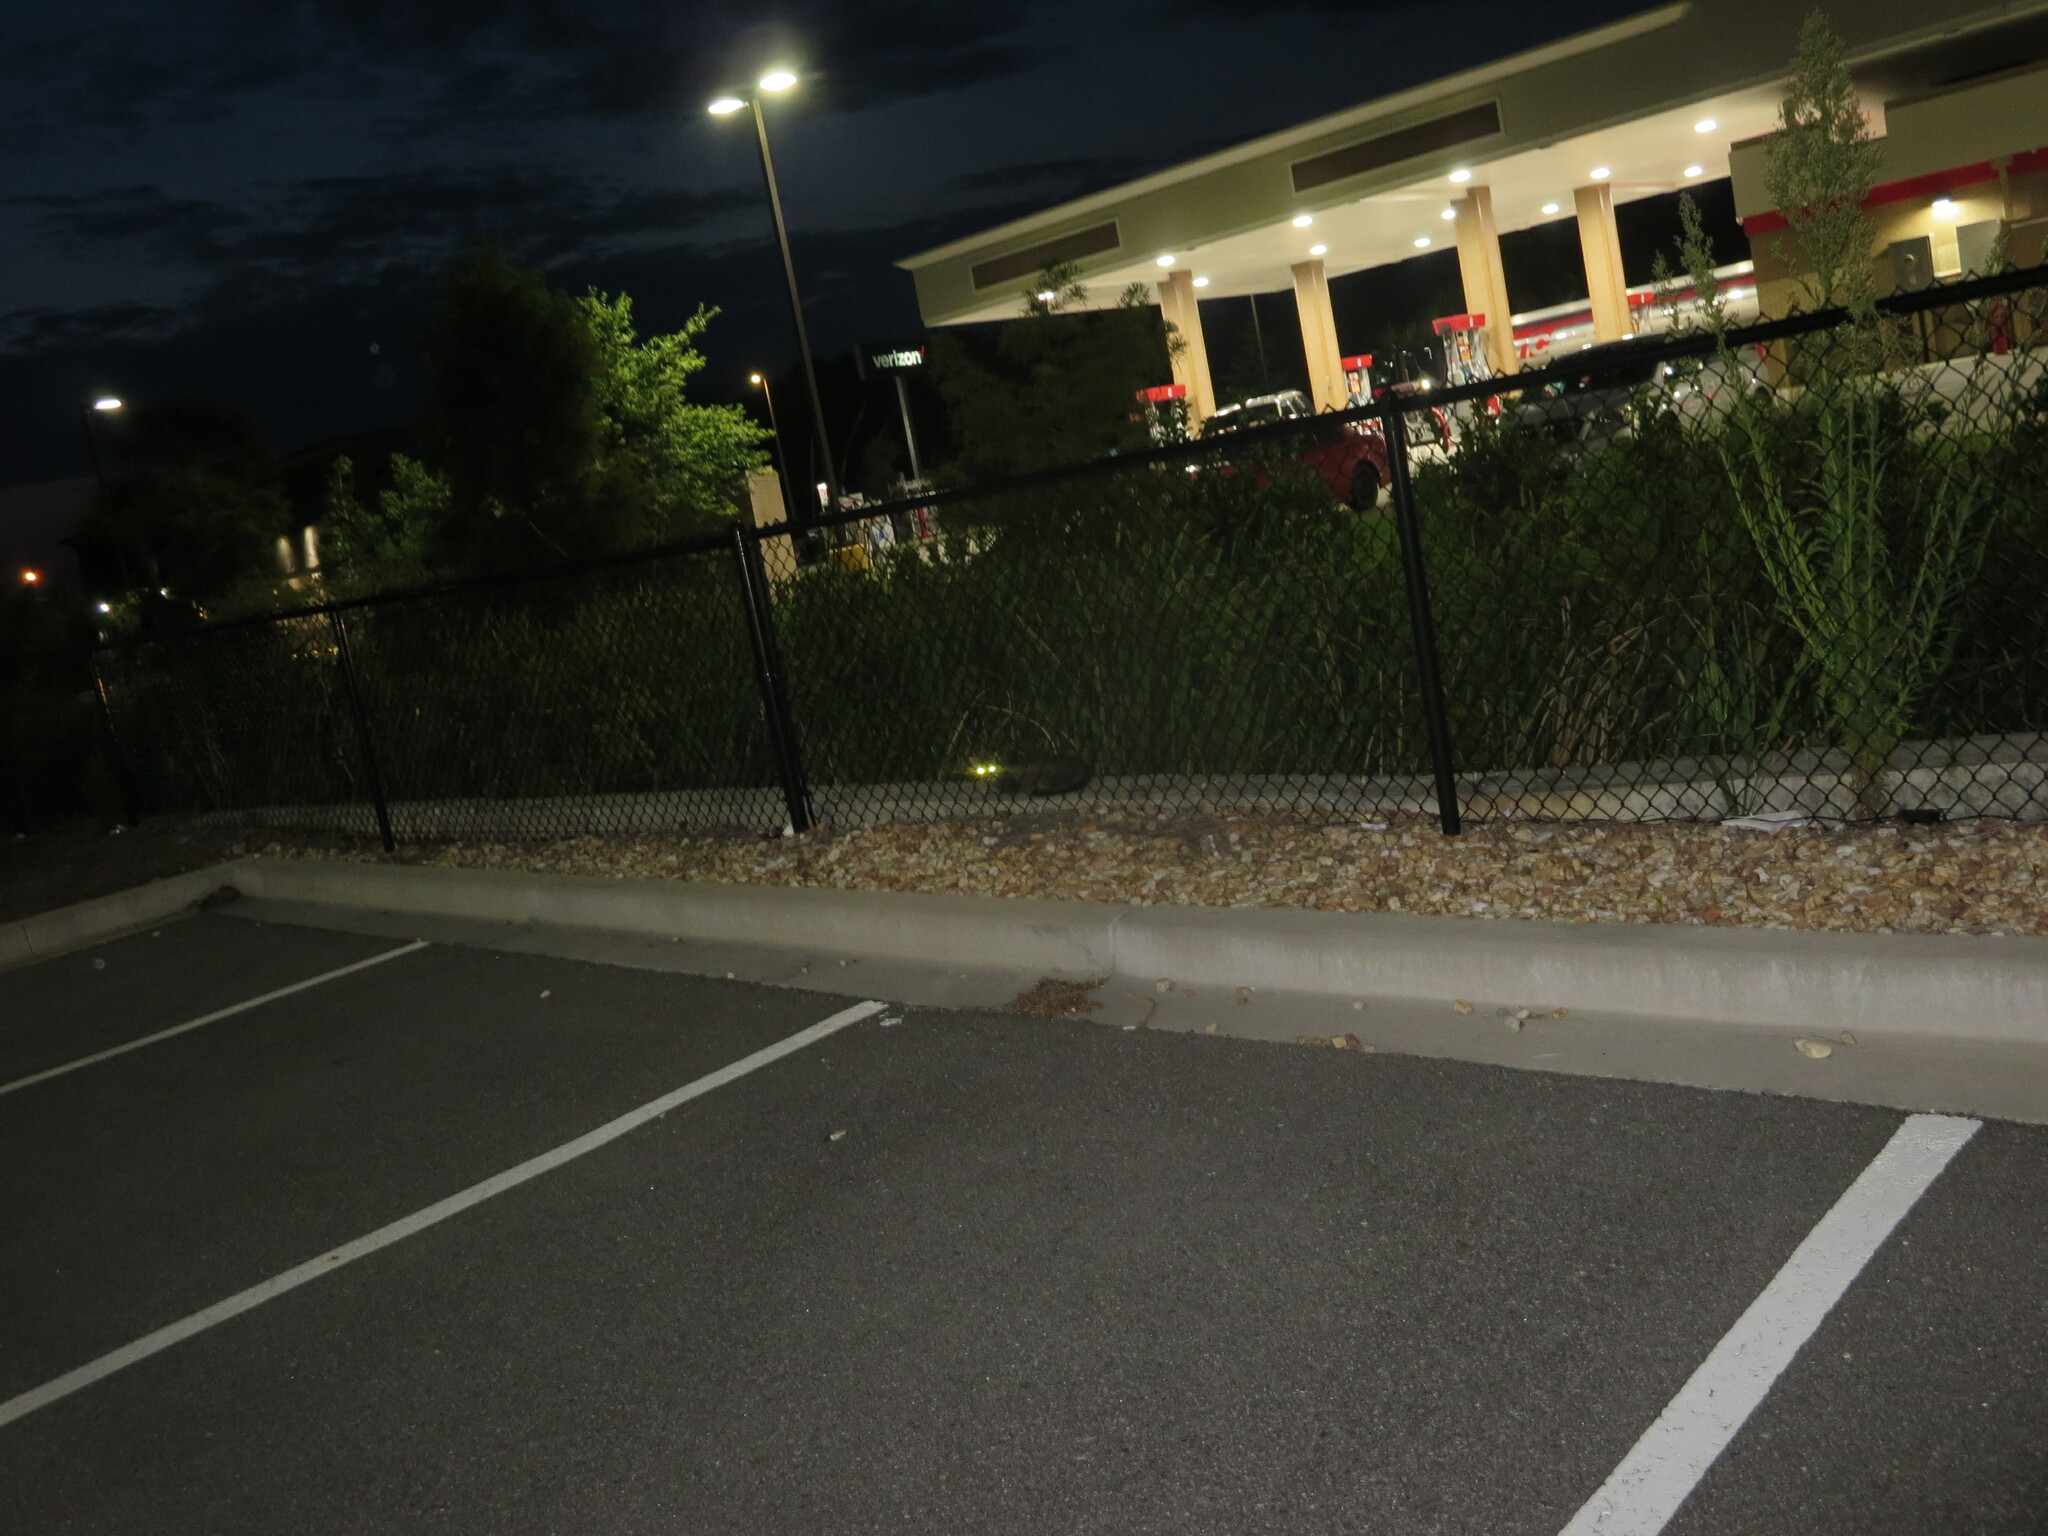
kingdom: Animalia
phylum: Chordata
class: Mammalia
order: Carnivora
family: Felidae
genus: Felis
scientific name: Felis catus
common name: Domestic cat
